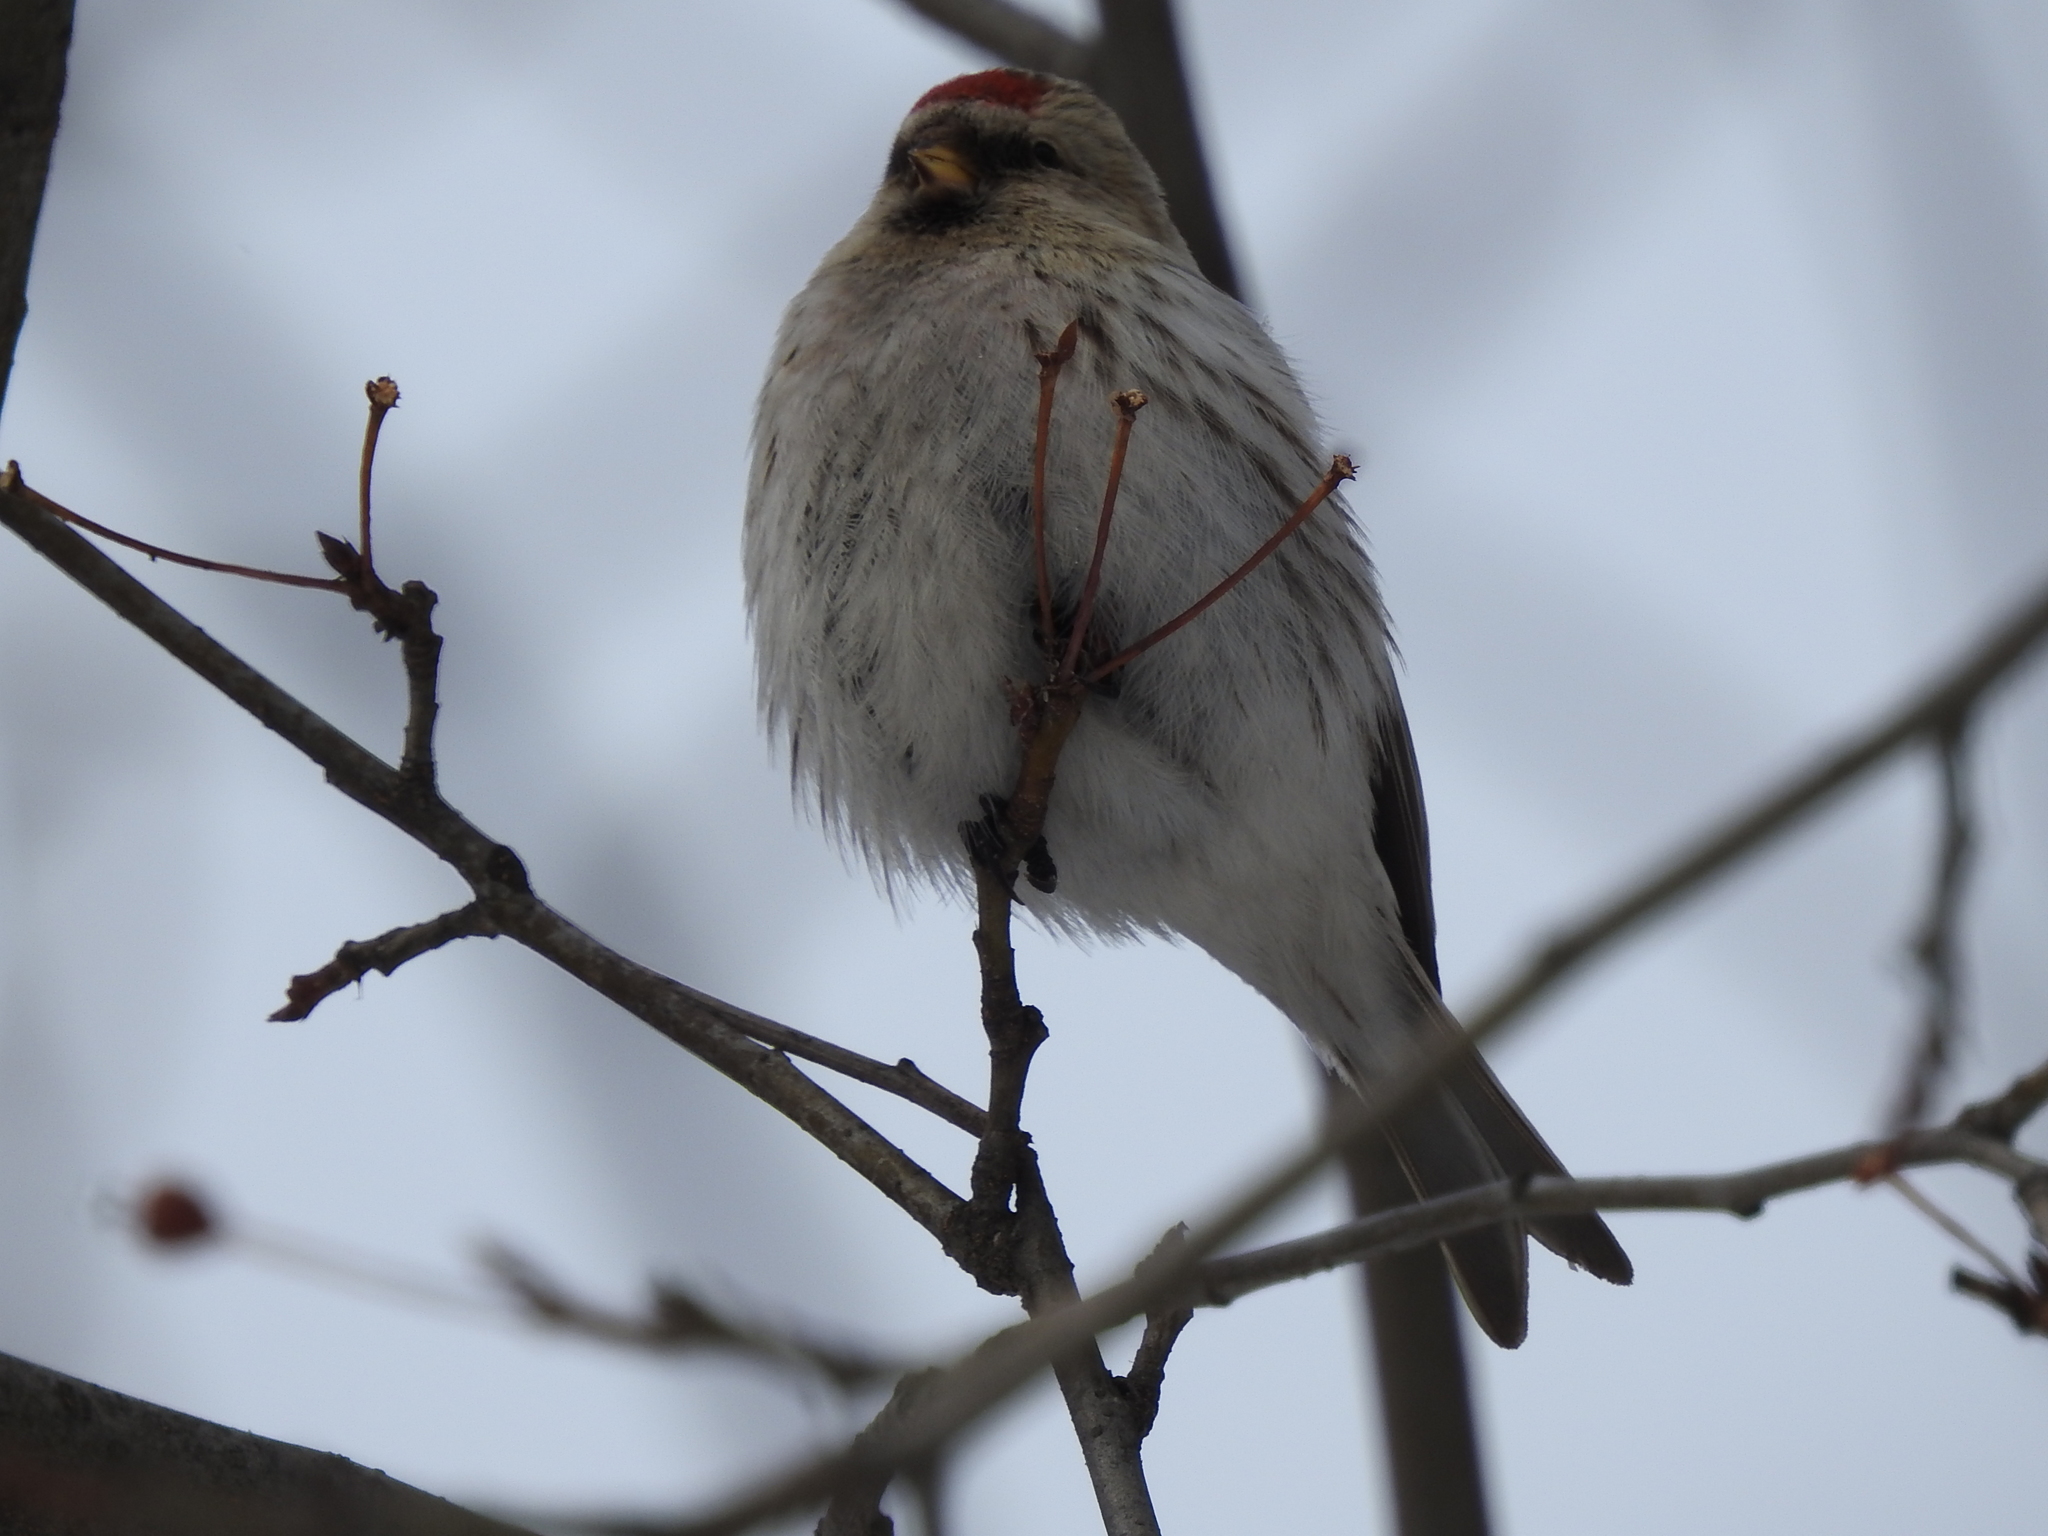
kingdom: Animalia
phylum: Chordata
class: Aves
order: Passeriformes
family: Fringillidae
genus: Acanthis
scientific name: Acanthis hornemanni
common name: Arctic redpoll
